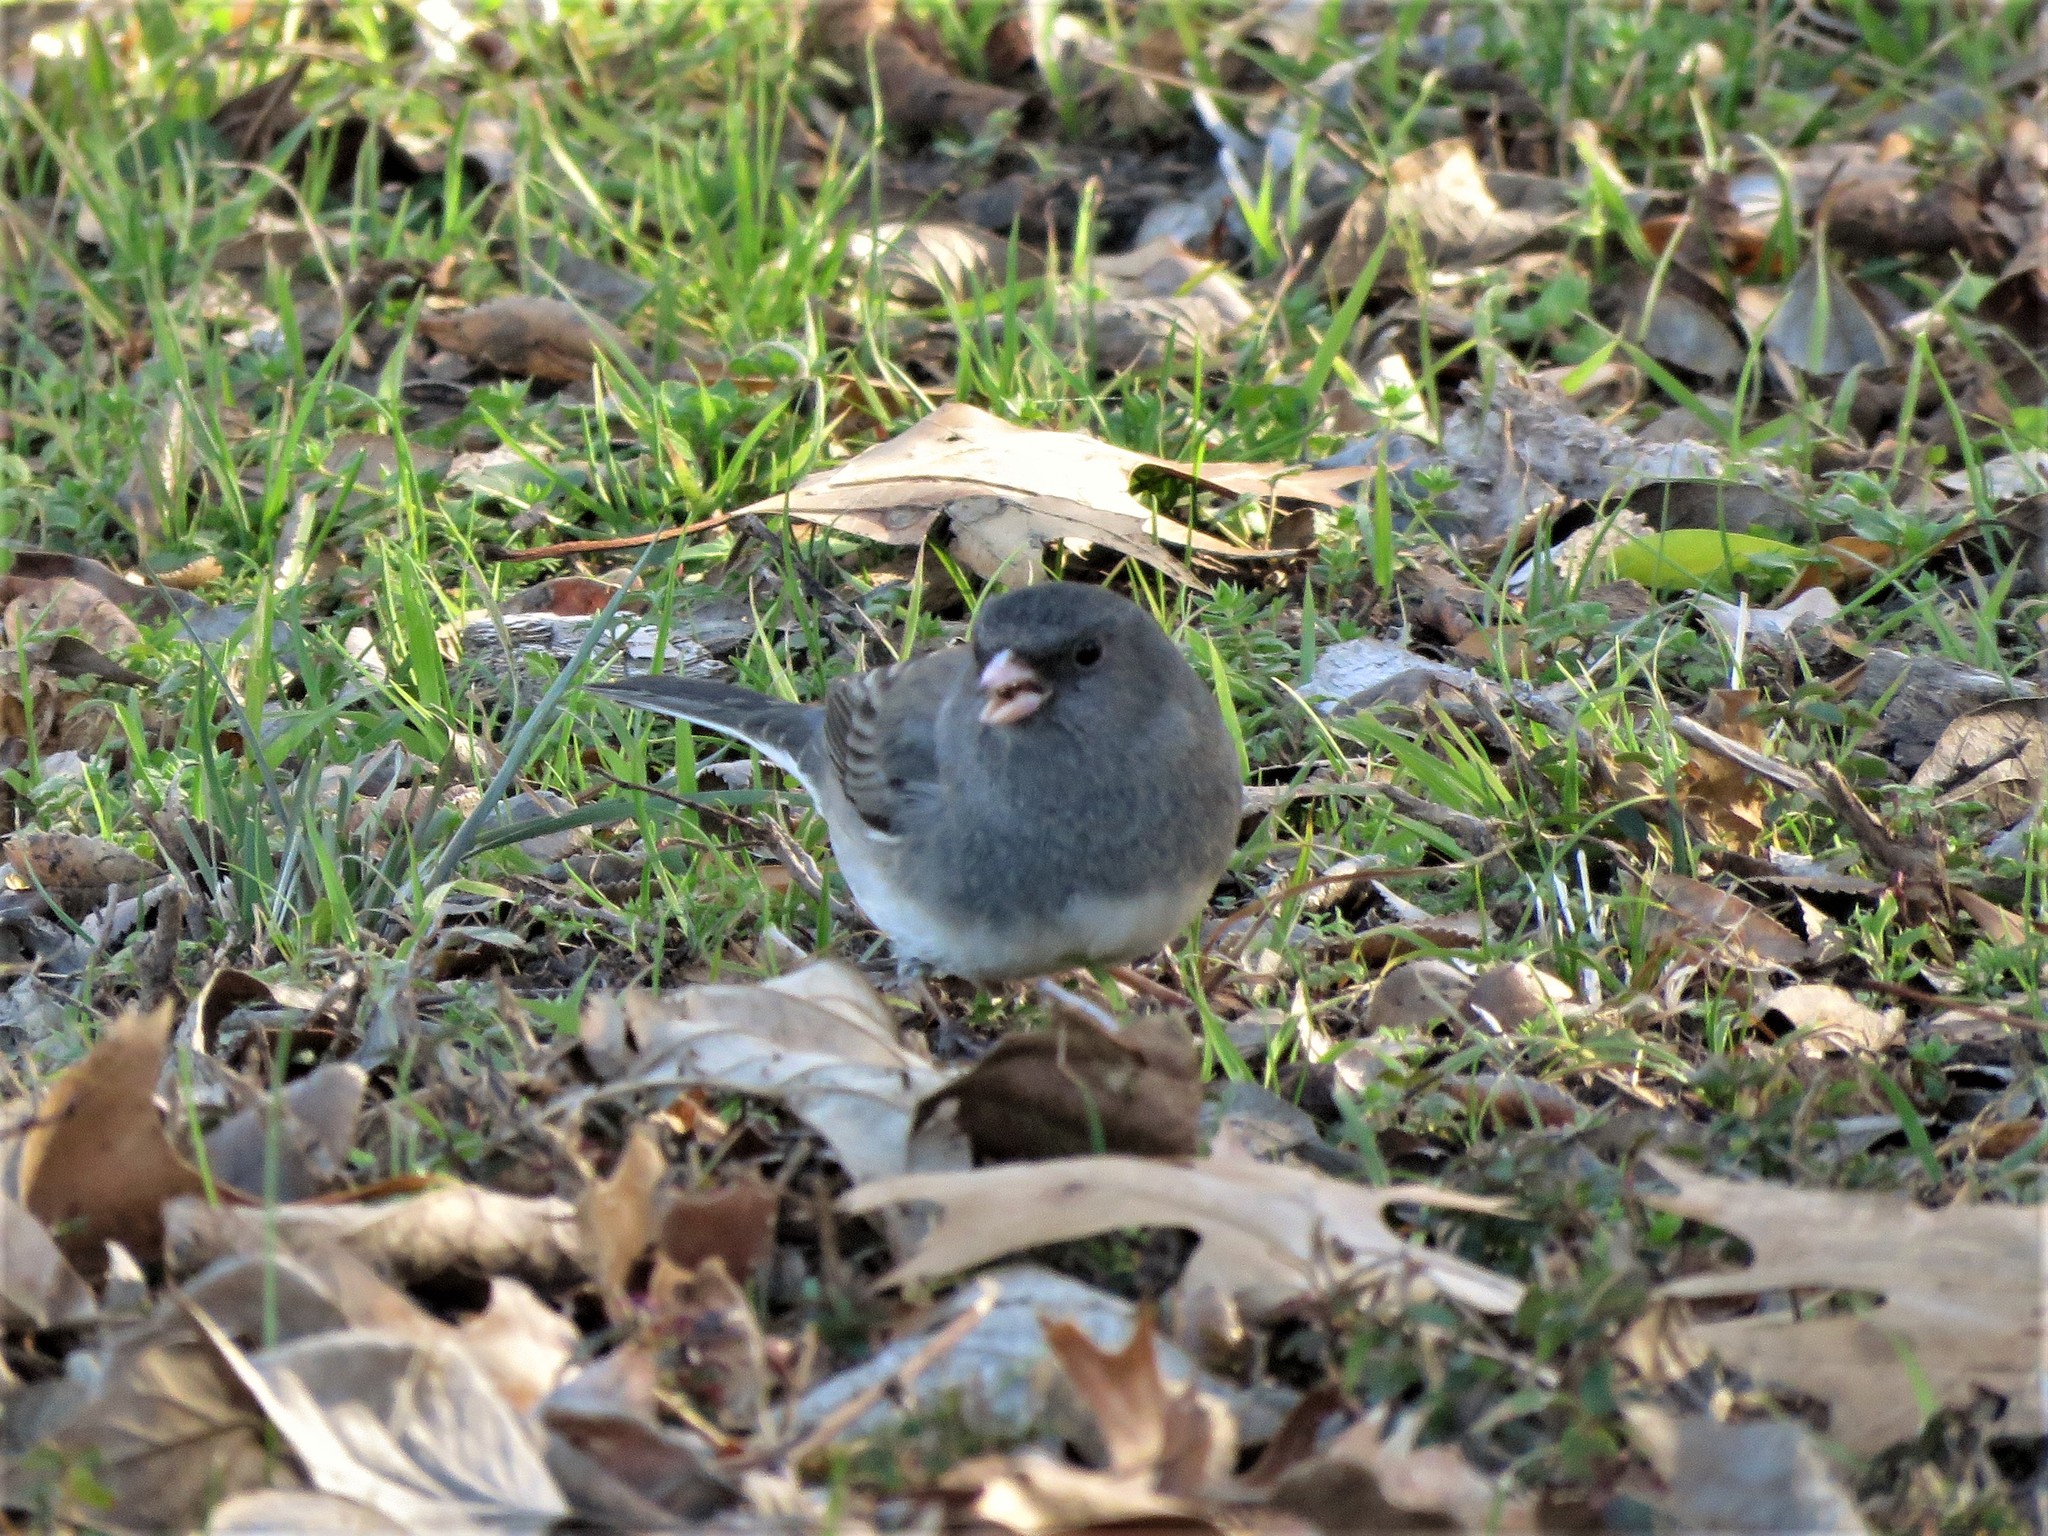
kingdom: Animalia
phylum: Chordata
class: Aves
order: Passeriformes
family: Passerellidae
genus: Junco
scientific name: Junco hyemalis
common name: Dark-eyed junco
